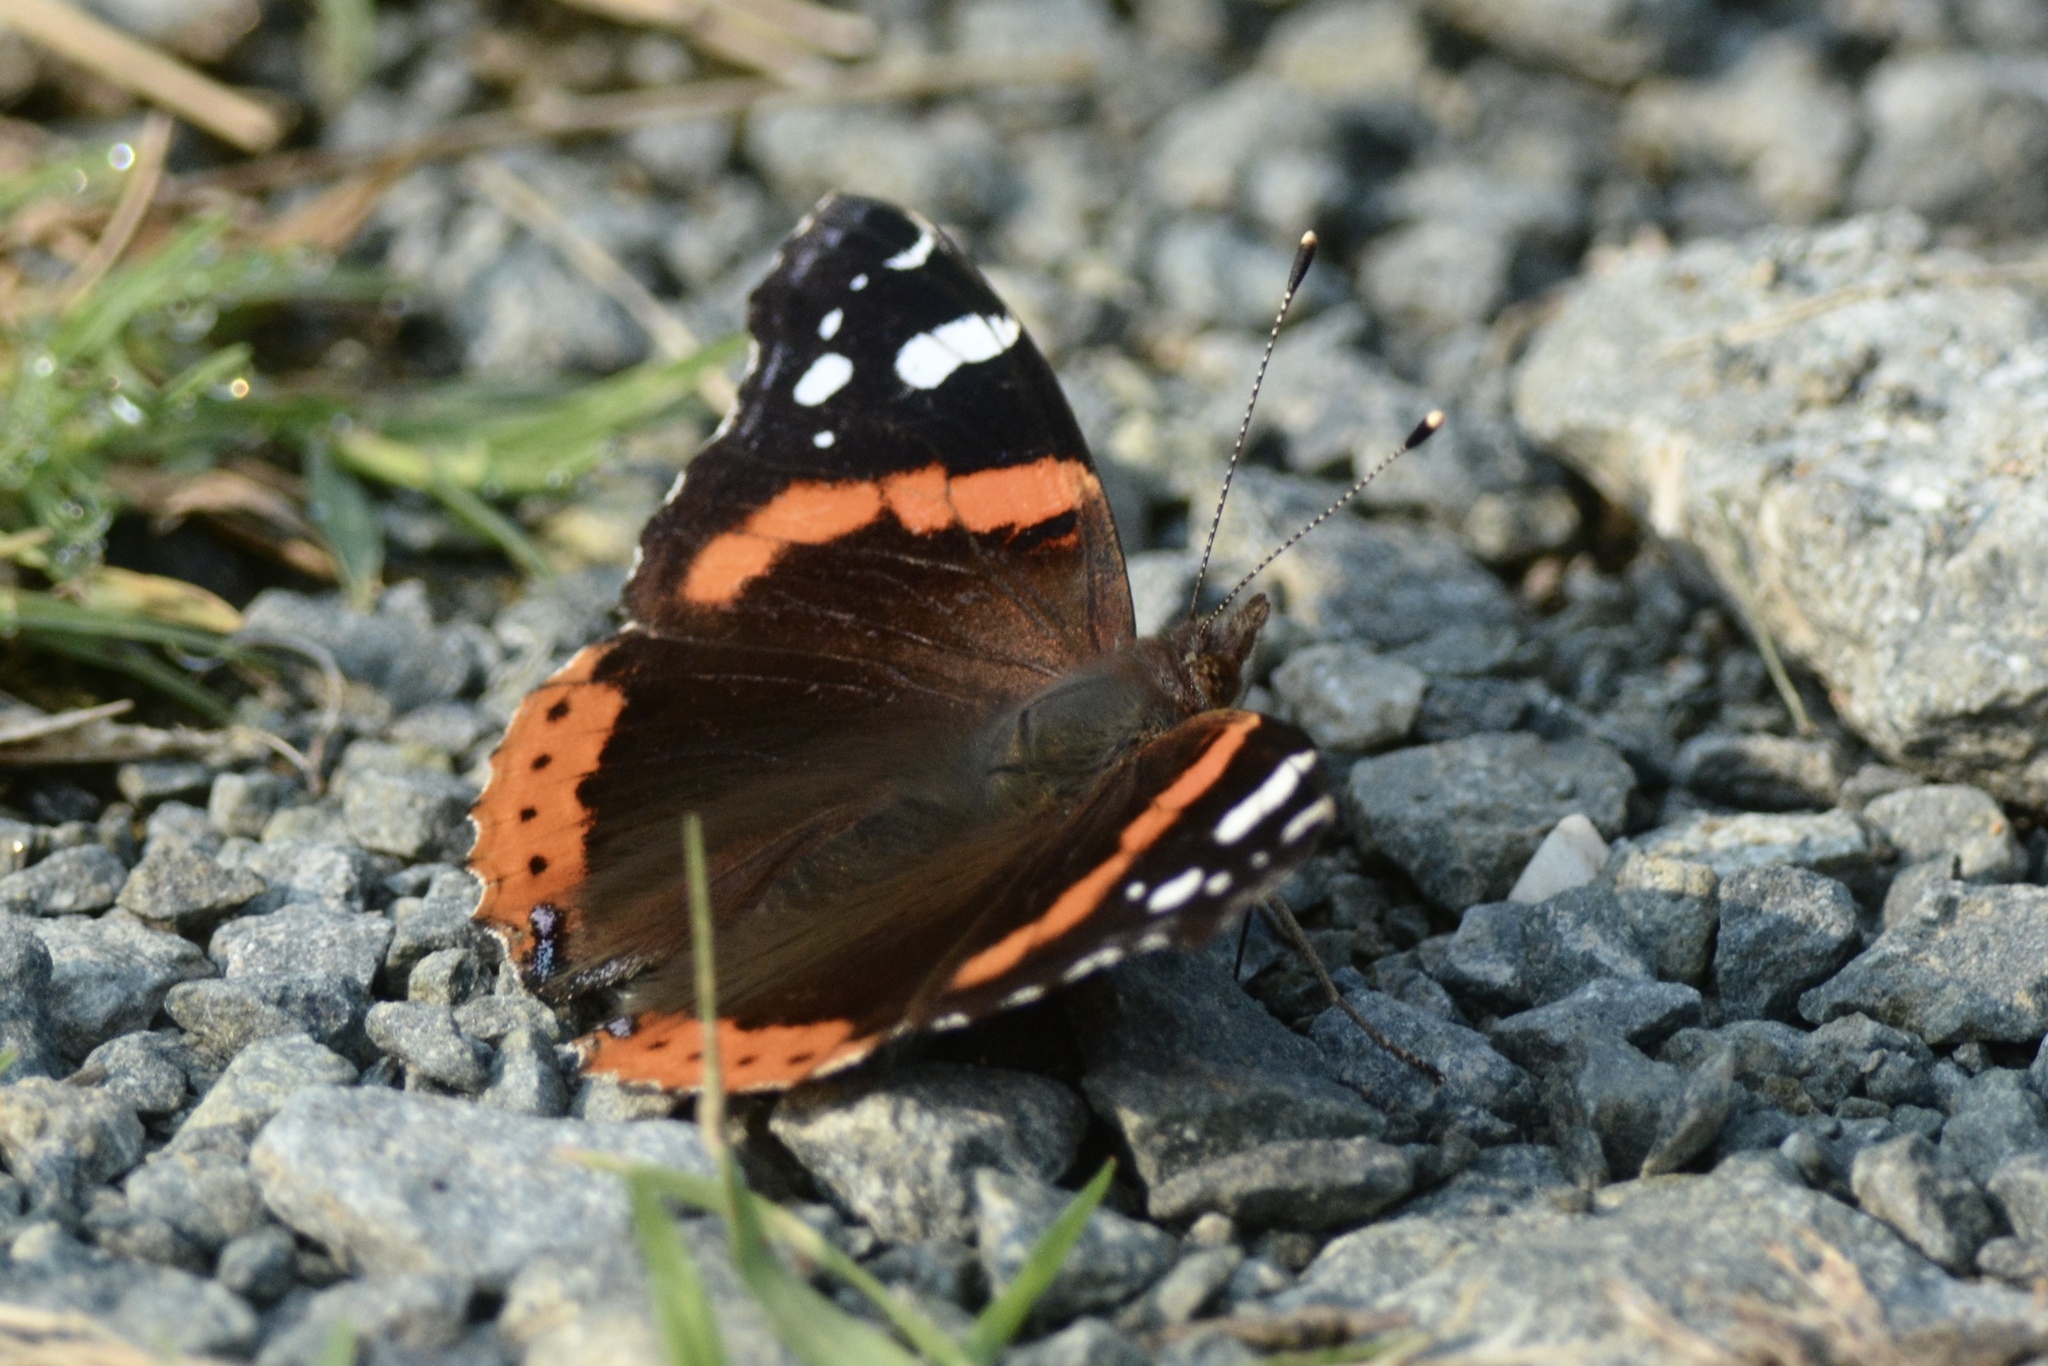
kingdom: Animalia
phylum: Arthropoda
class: Insecta
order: Lepidoptera
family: Nymphalidae
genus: Vanessa
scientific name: Vanessa atalanta
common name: Red admiral
